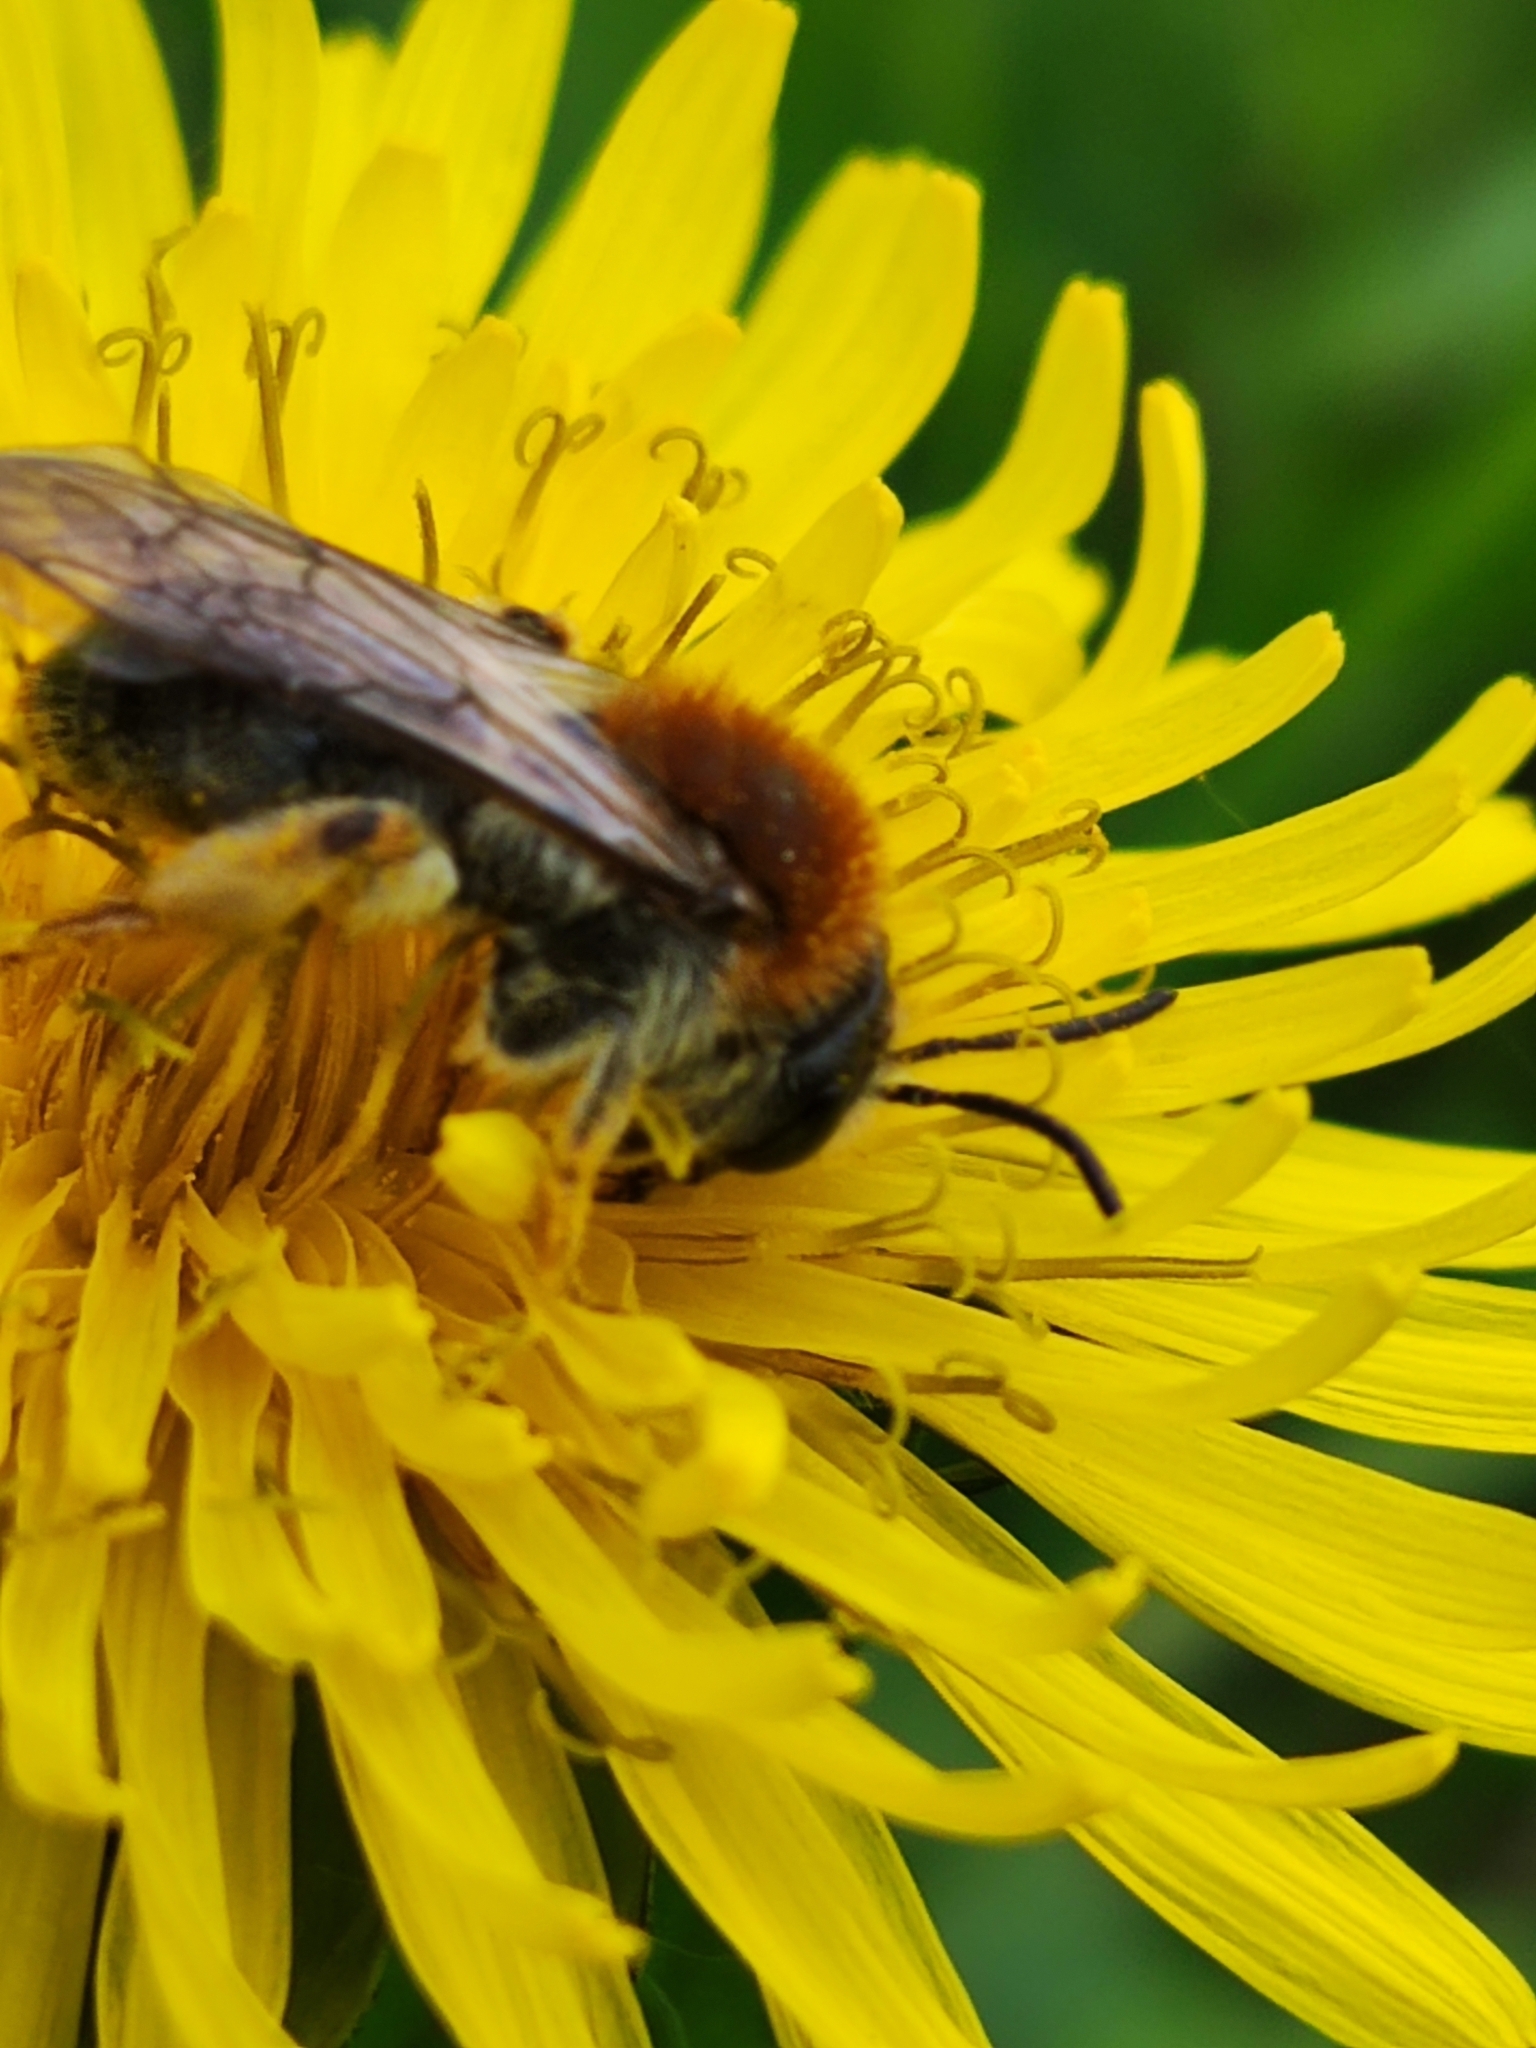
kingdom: Animalia
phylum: Arthropoda
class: Insecta
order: Hymenoptera
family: Andrenidae
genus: Andrena
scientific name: Andrena haemorrhoa
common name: Early mining bee
